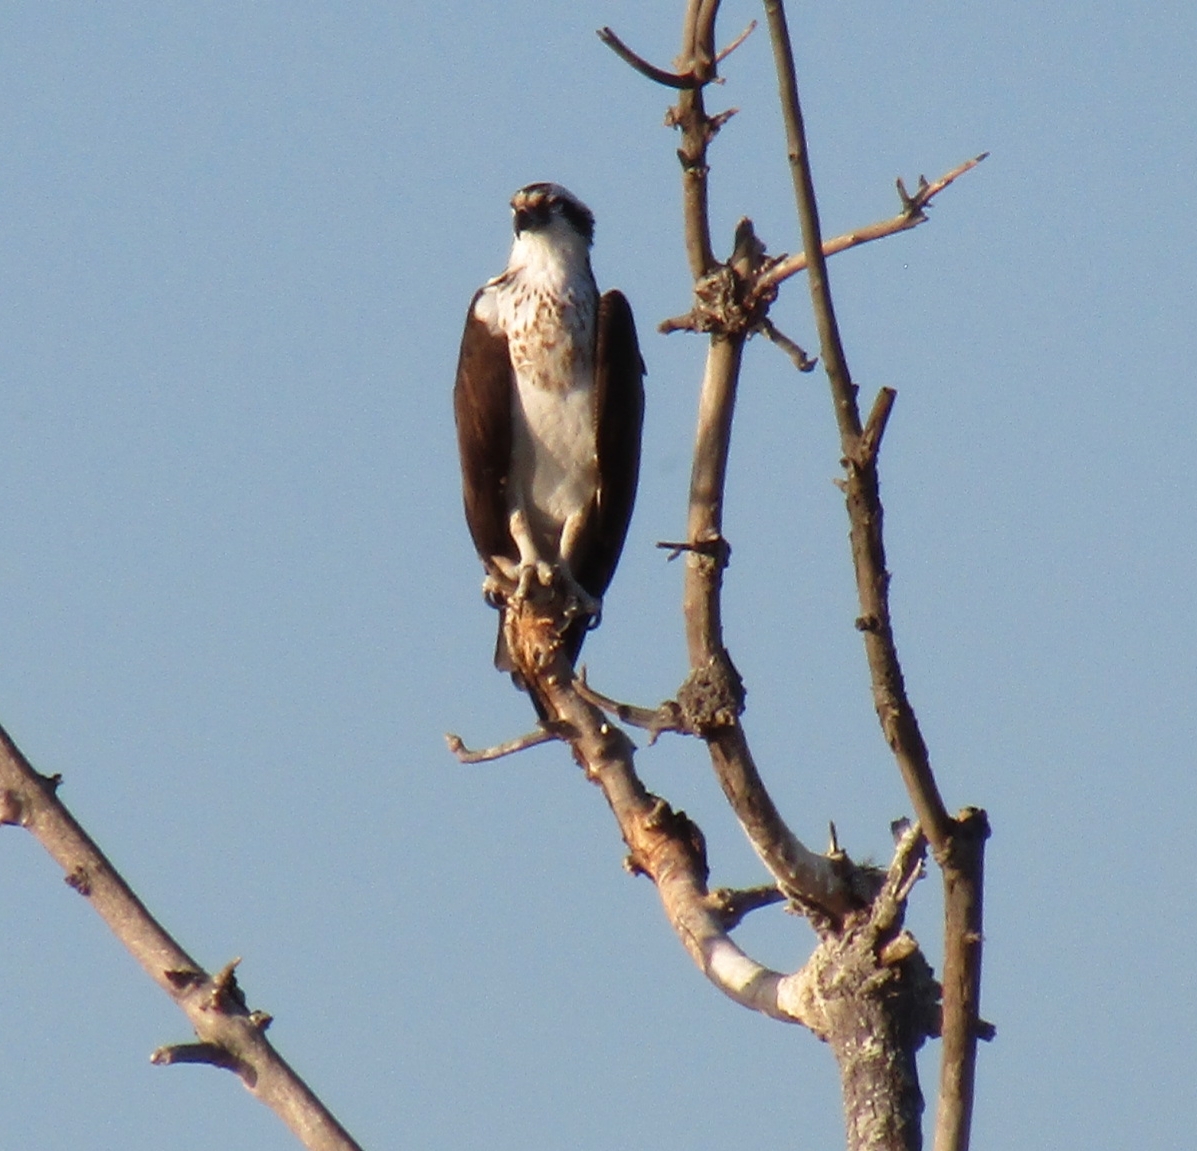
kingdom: Animalia
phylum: Chordata
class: Aves
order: Accipitriformes
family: Pandionidae
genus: Pandion
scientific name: Pandion haliaetus
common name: Osprey
